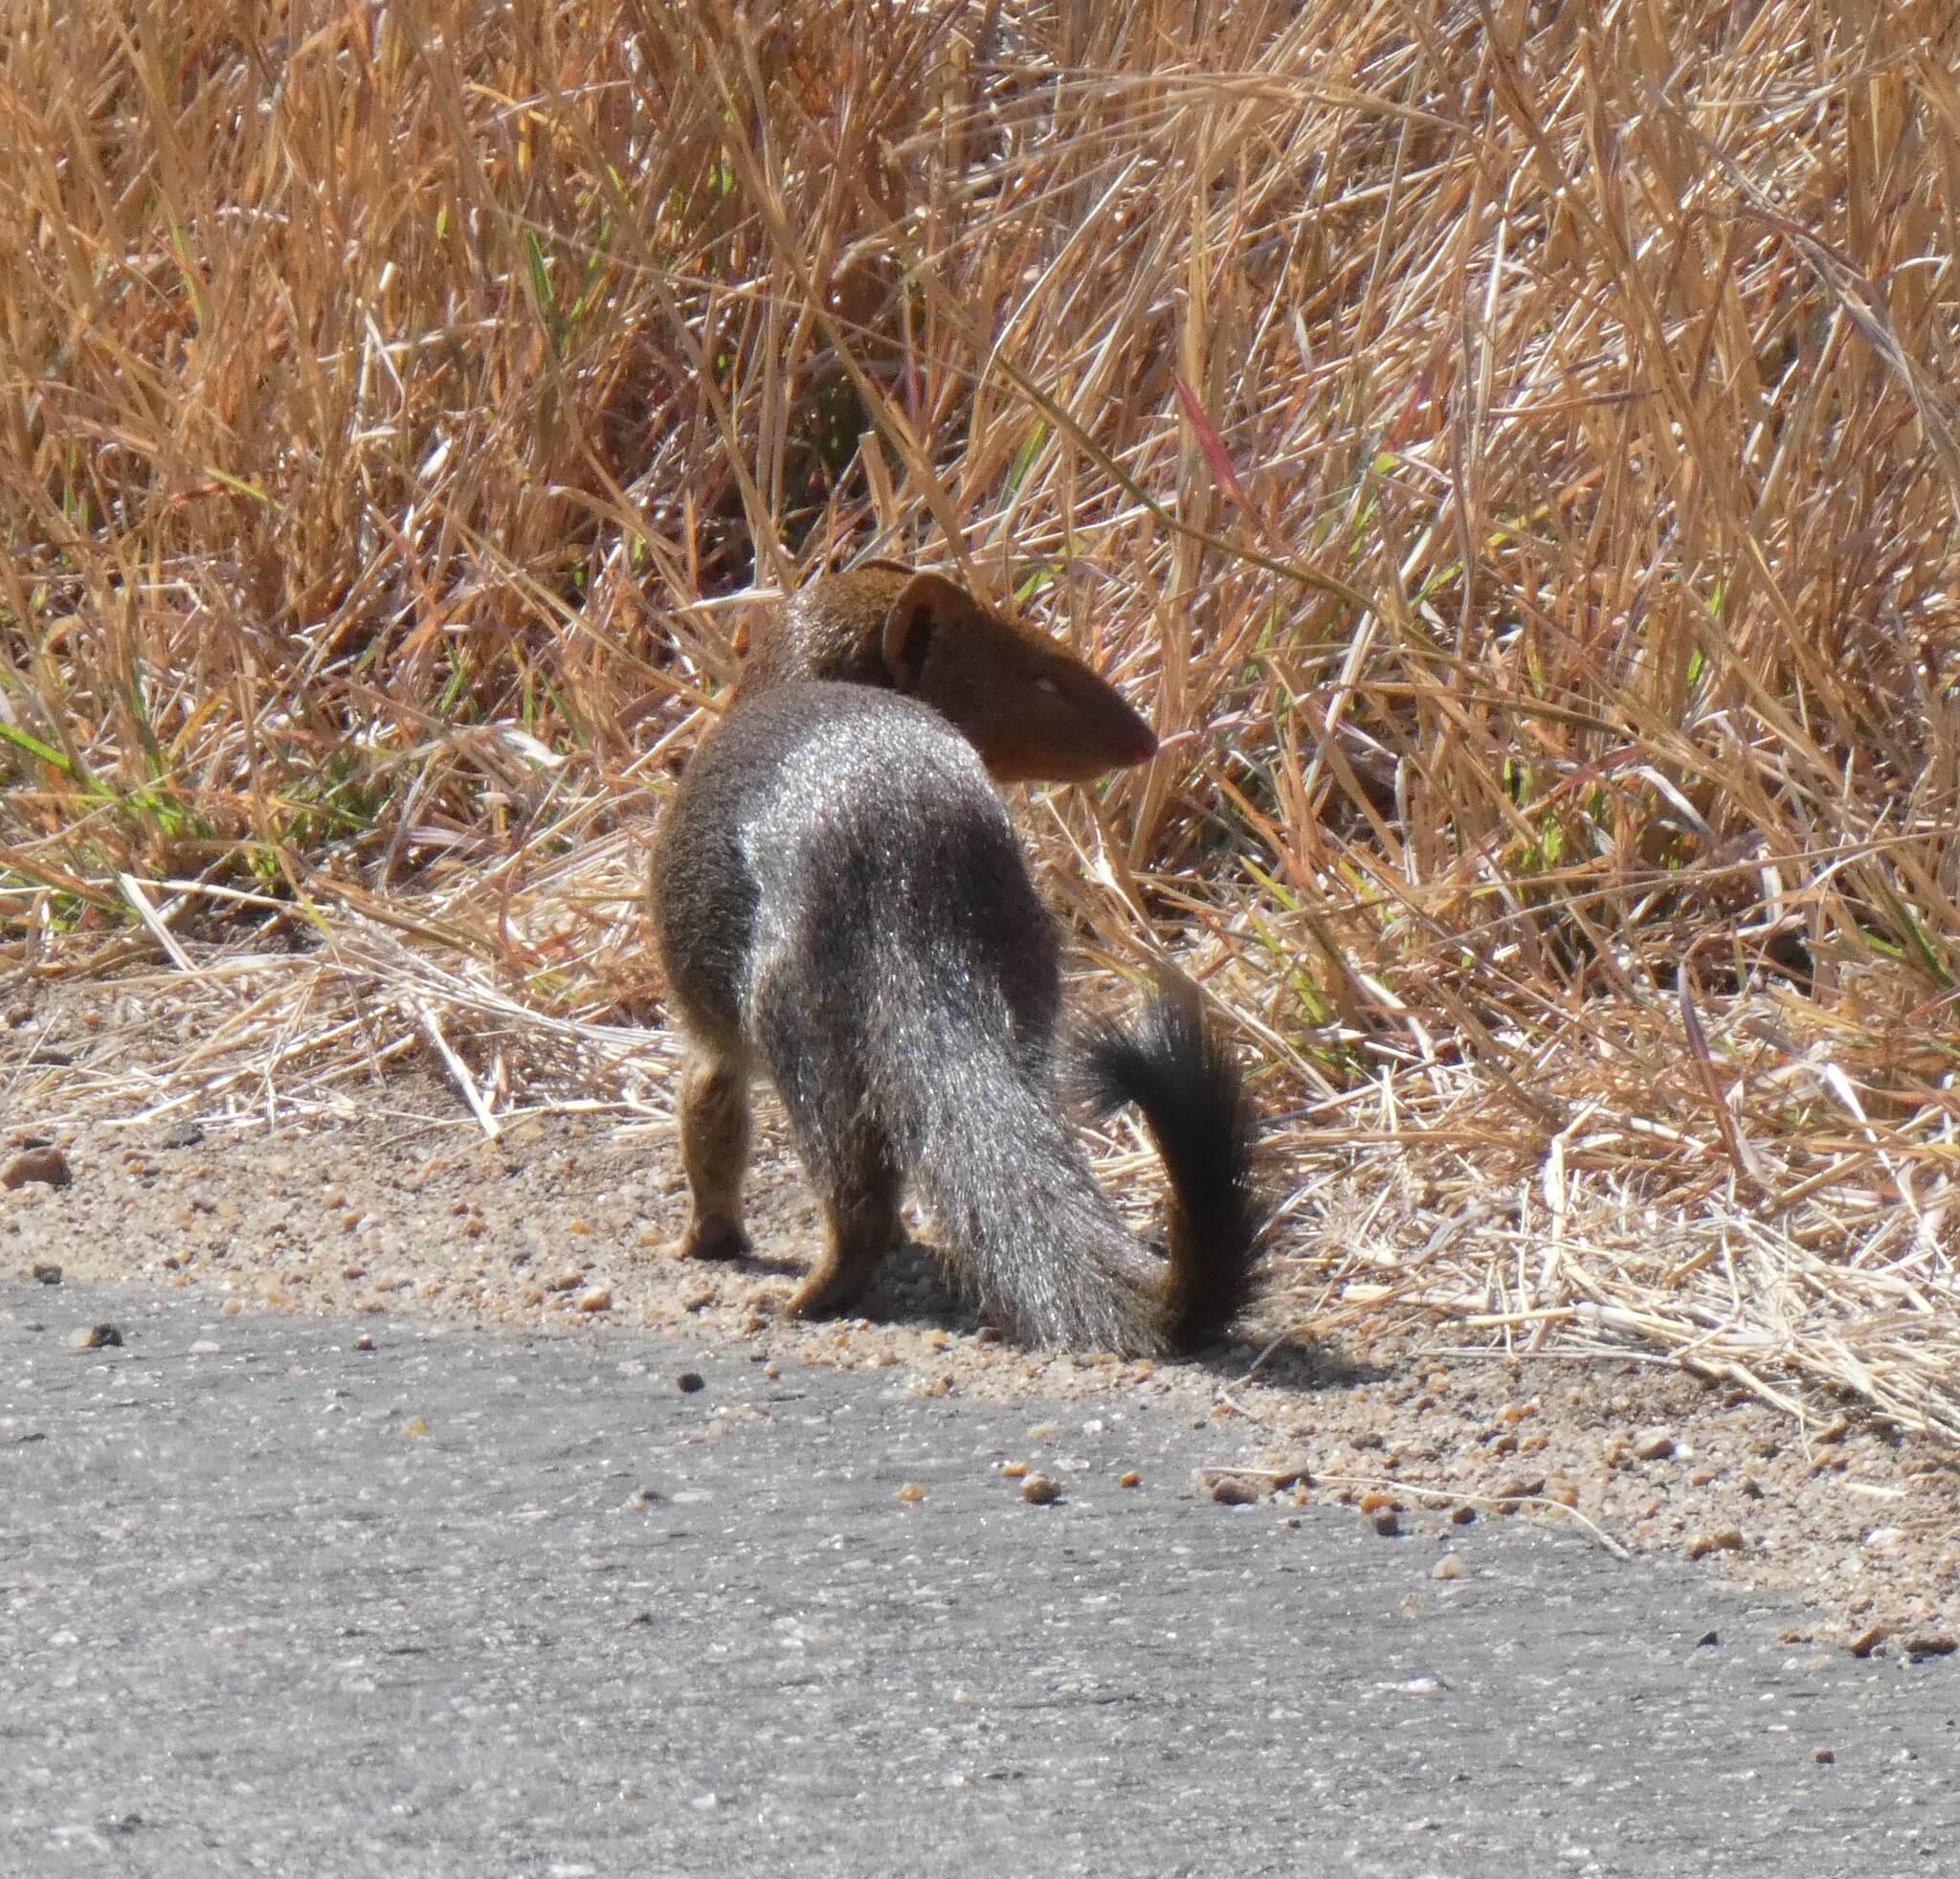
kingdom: Animalia
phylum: Chordata
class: Mammalia
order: Carnivora
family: Herpestidae
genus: Galerella
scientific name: Galerella sanguinea
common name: Slender mongoose
